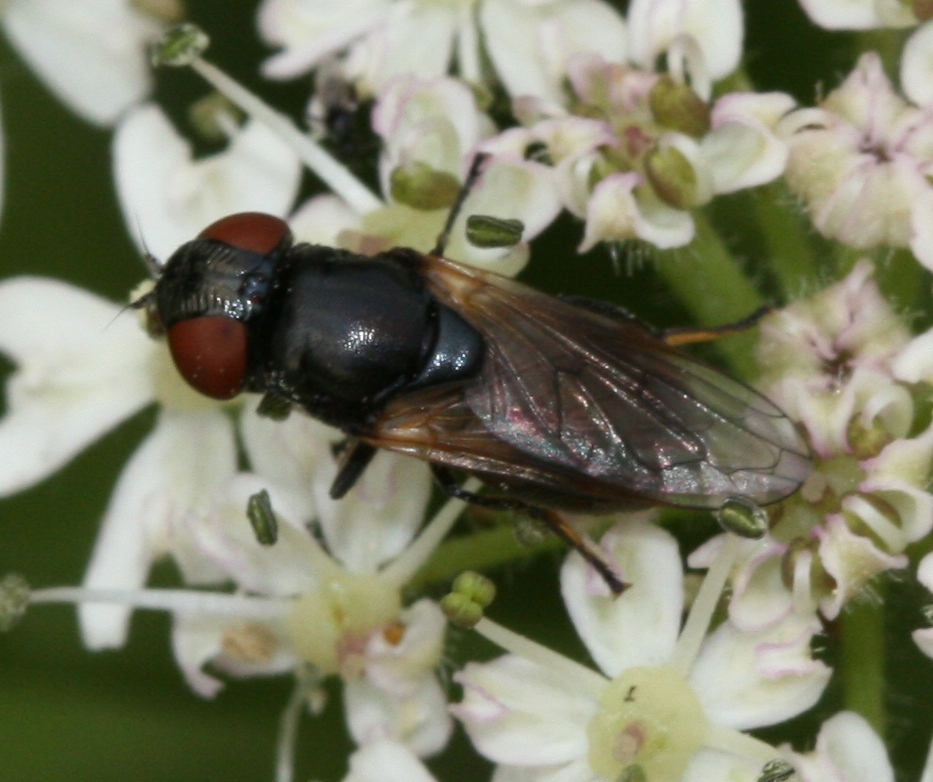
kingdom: Animalia
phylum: Arthropoda
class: Insecta
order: Diptera
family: Syrphidae
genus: Chrysogaster
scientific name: Chrysogaster cemiteriorum
